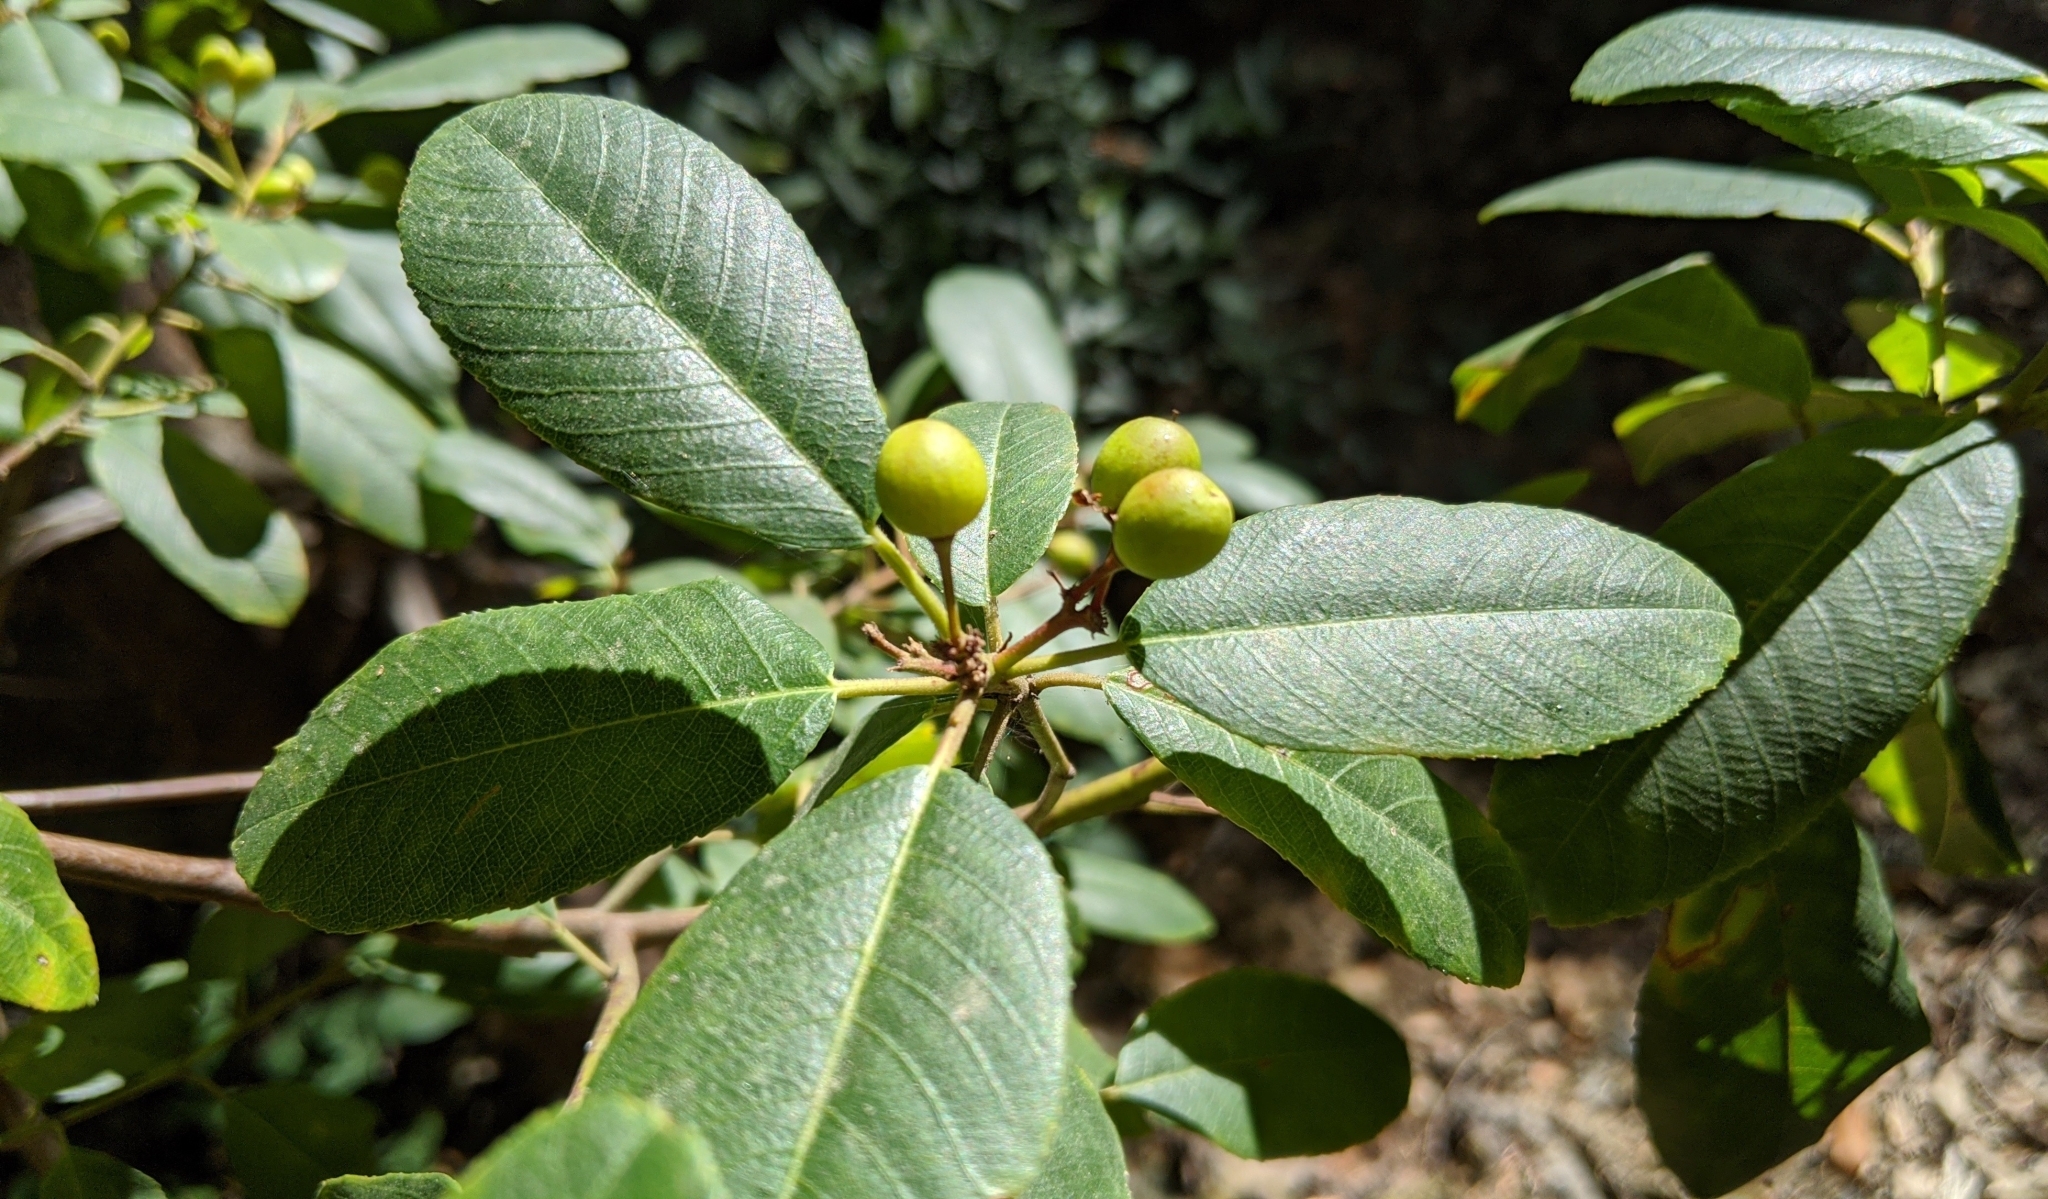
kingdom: Plantae
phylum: Tracheophyta
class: Magnoliopsida
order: Rosales
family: Rhamnaceae
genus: Frangula
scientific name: Frangula californica
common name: California buckthorn
